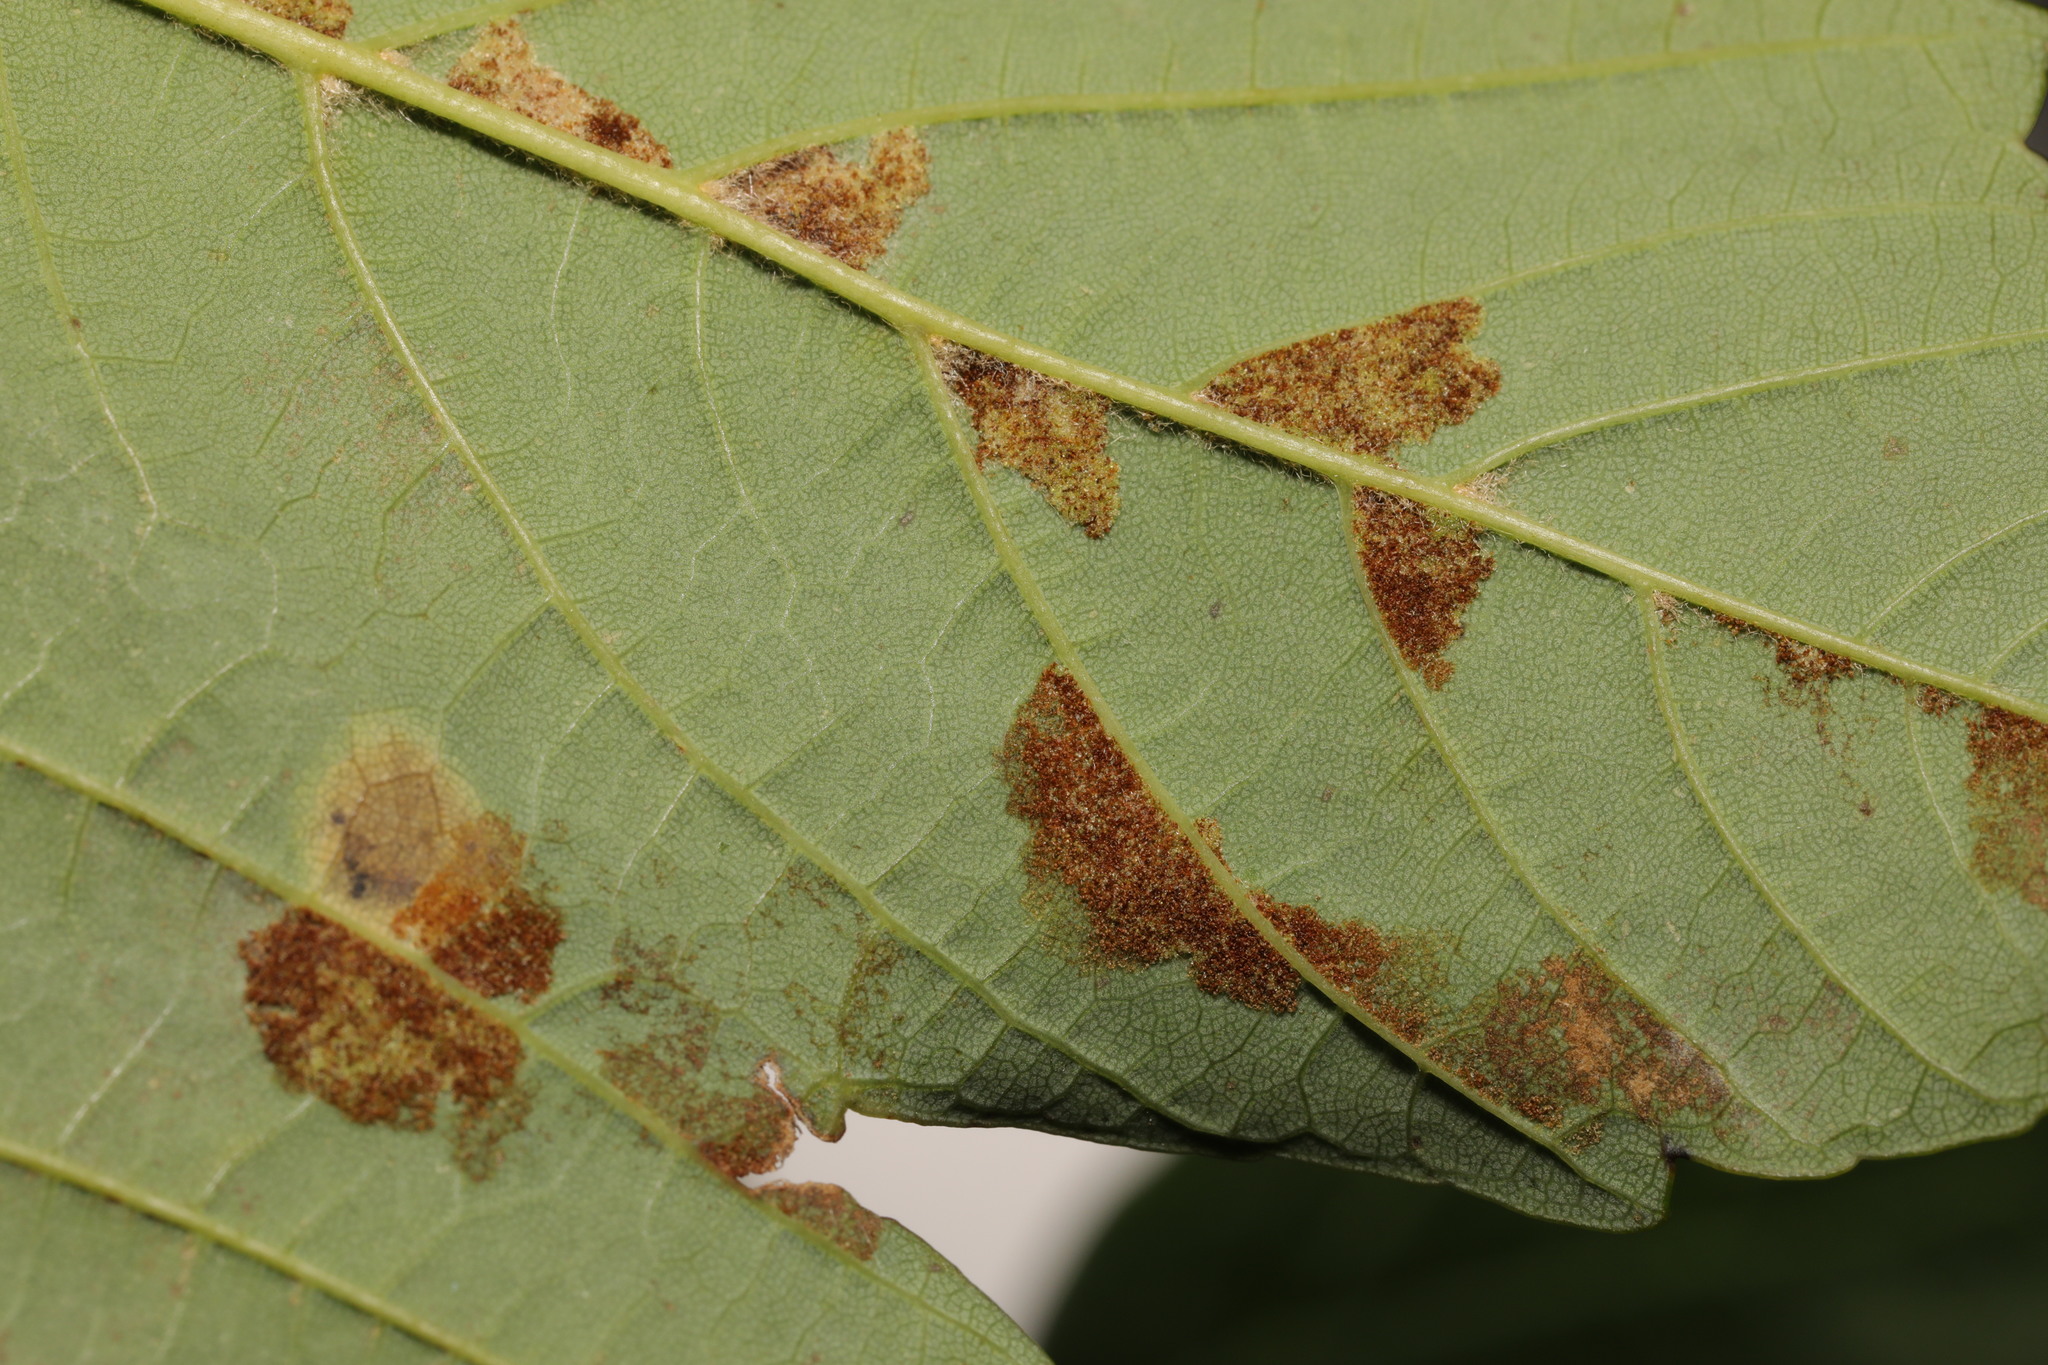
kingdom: Animalia
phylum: Arthropoda
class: Arachnida
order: Trombidiformes
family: Eriophyidae
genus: Aceria
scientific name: Aceria pseudoplatani
